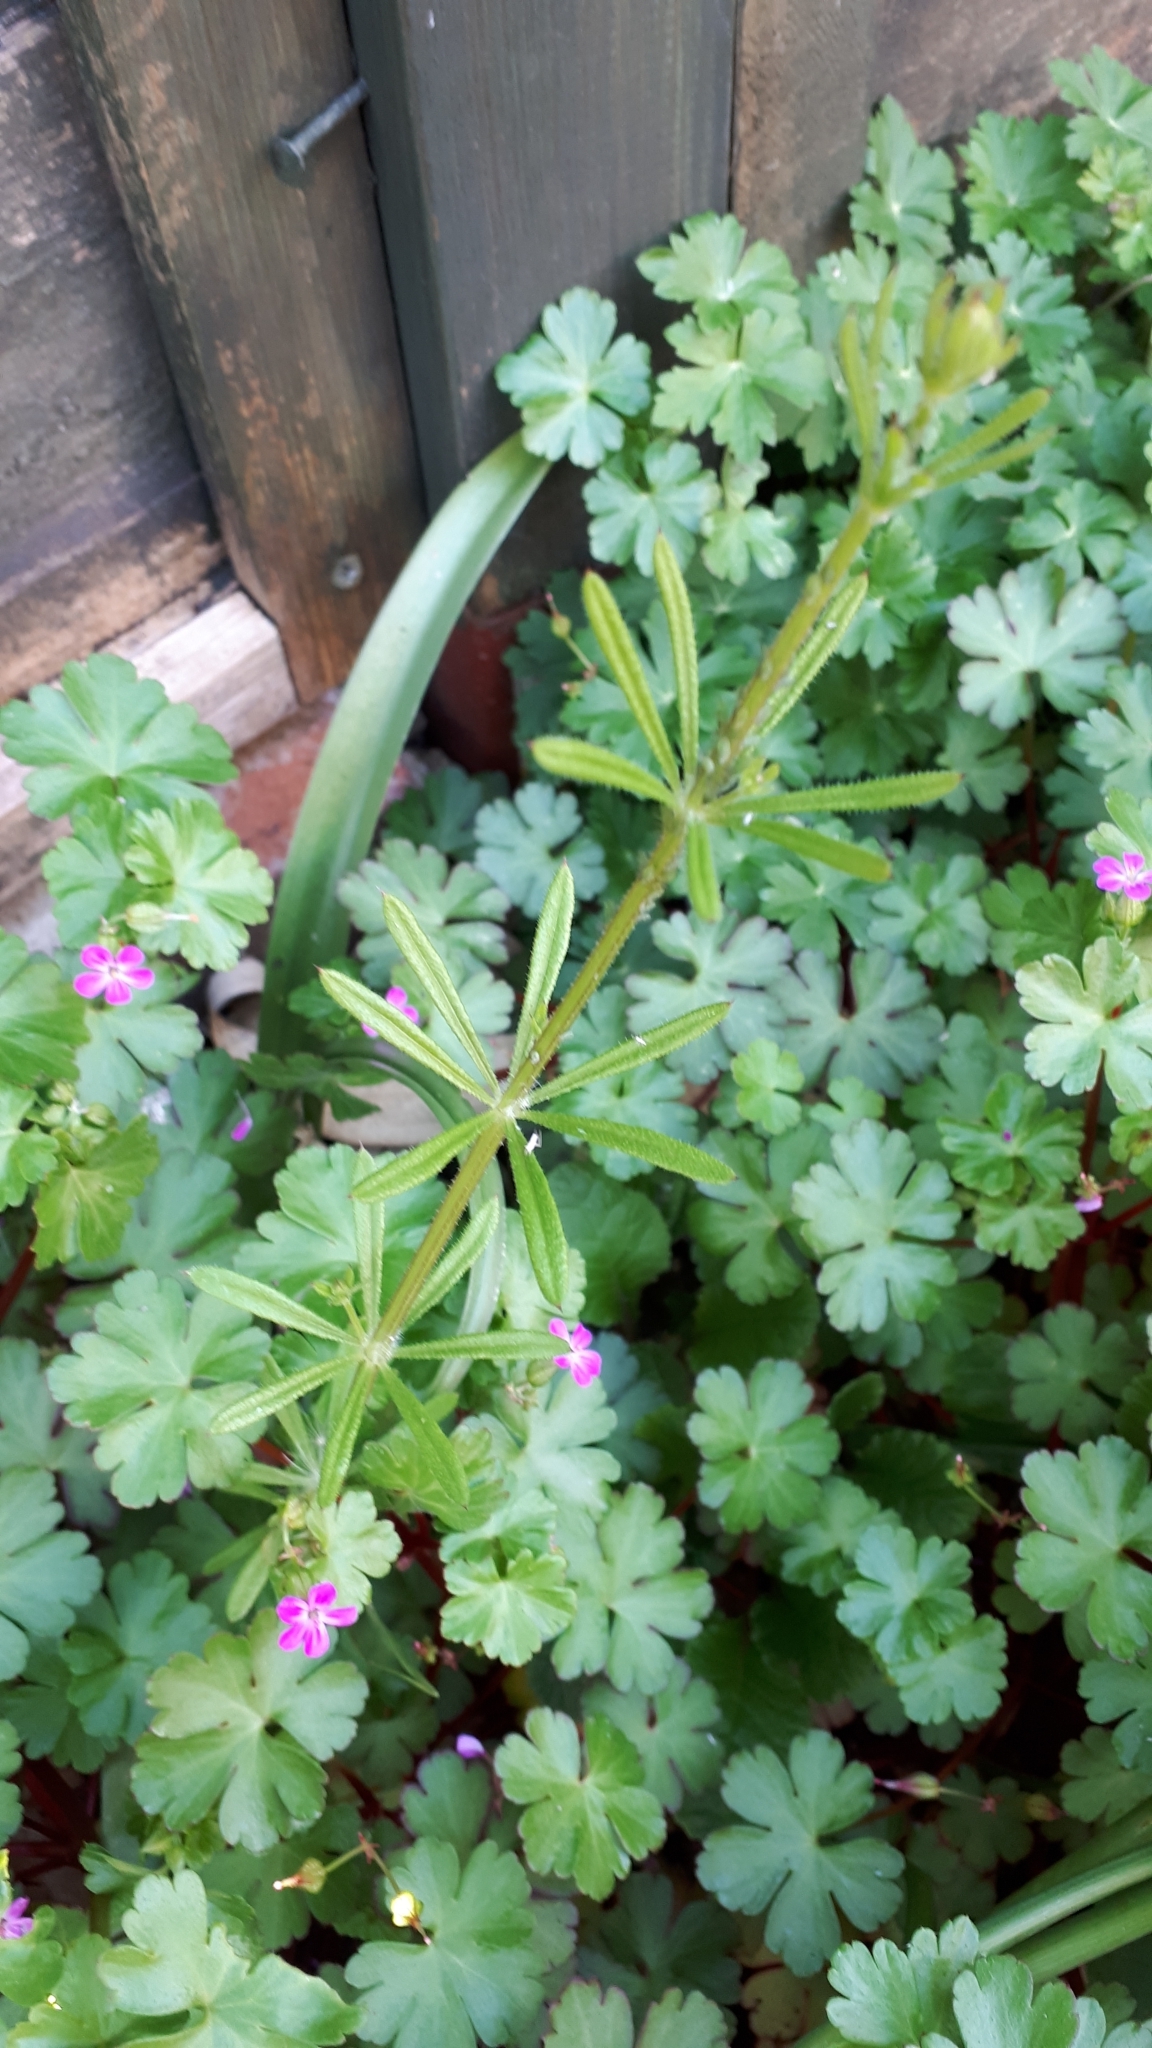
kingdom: Plantae
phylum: Tracheophyta
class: Magnoliopsida
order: Gentianales
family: Rubiaceae
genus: Galium
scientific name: Galium aparine
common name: Cleavers
